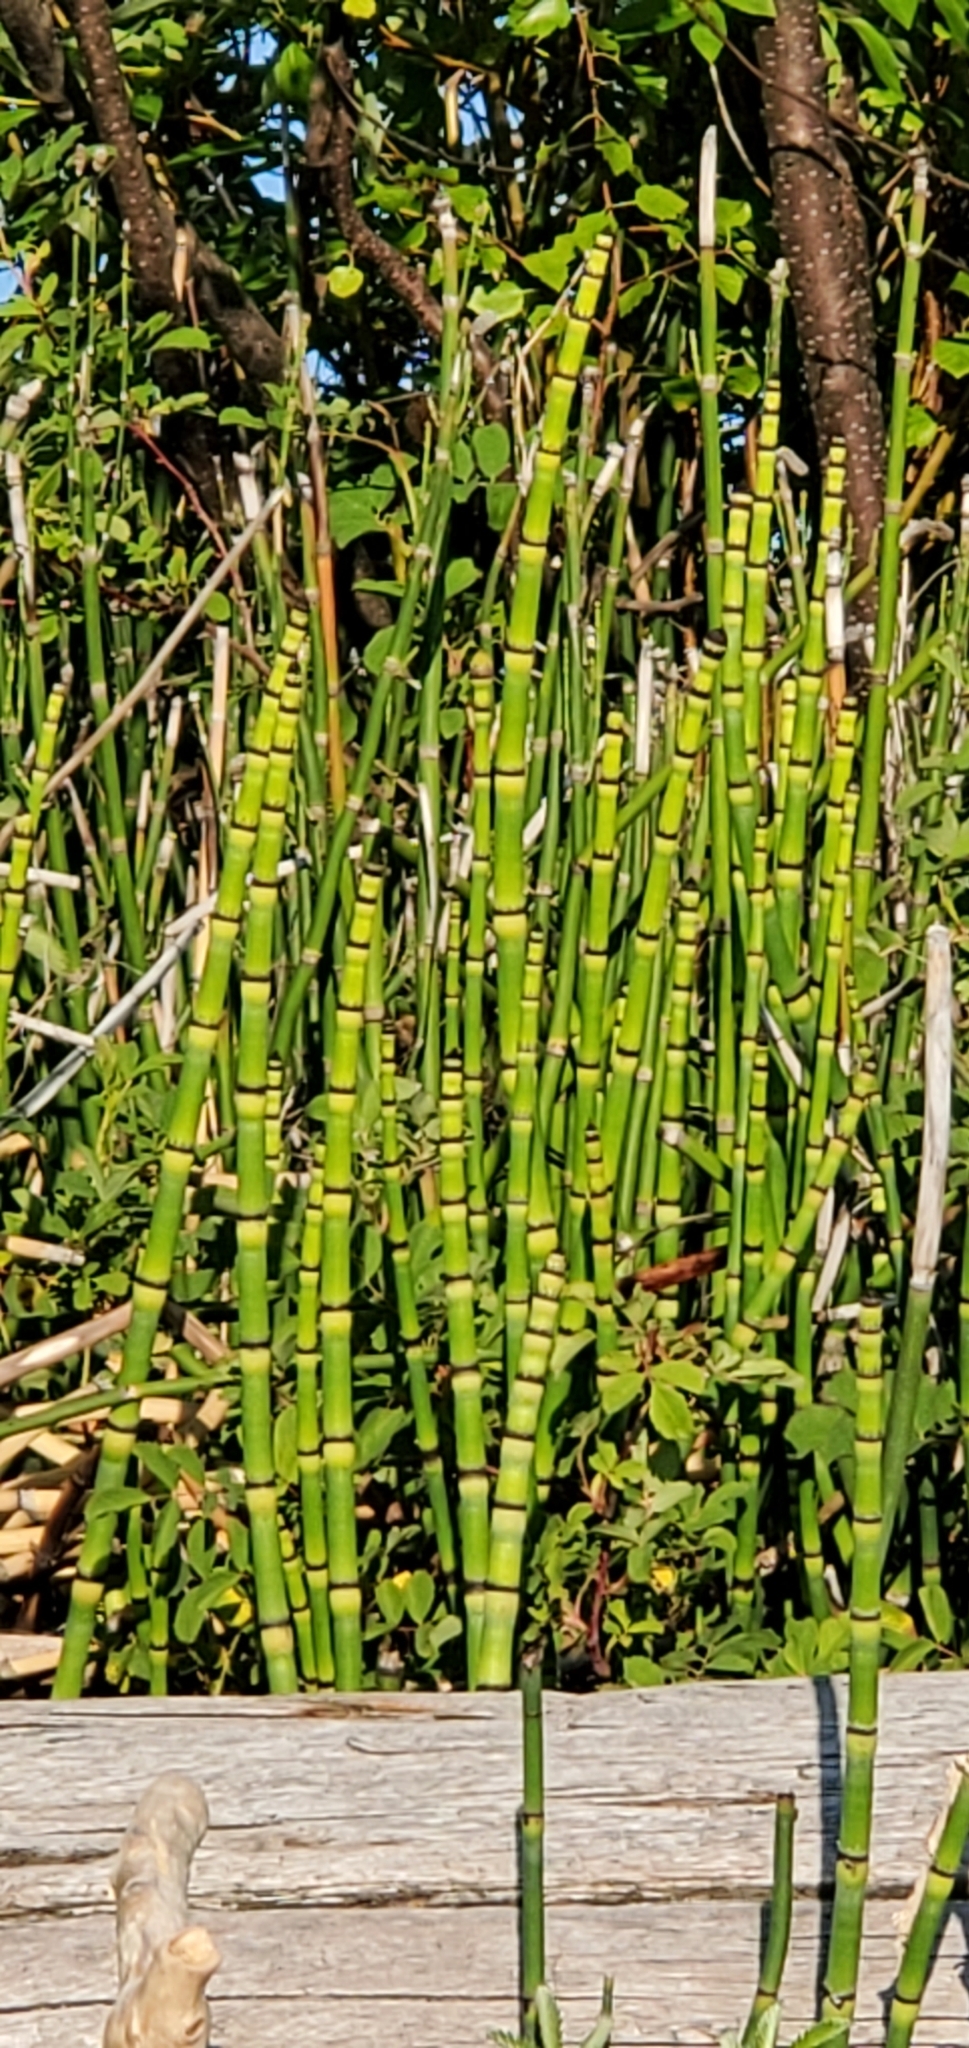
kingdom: Plantae
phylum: Tracheophyta
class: Polypodiopsida
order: Equisetales
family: Equisetaceae
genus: Equisetum
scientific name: Equisetum praealtum
